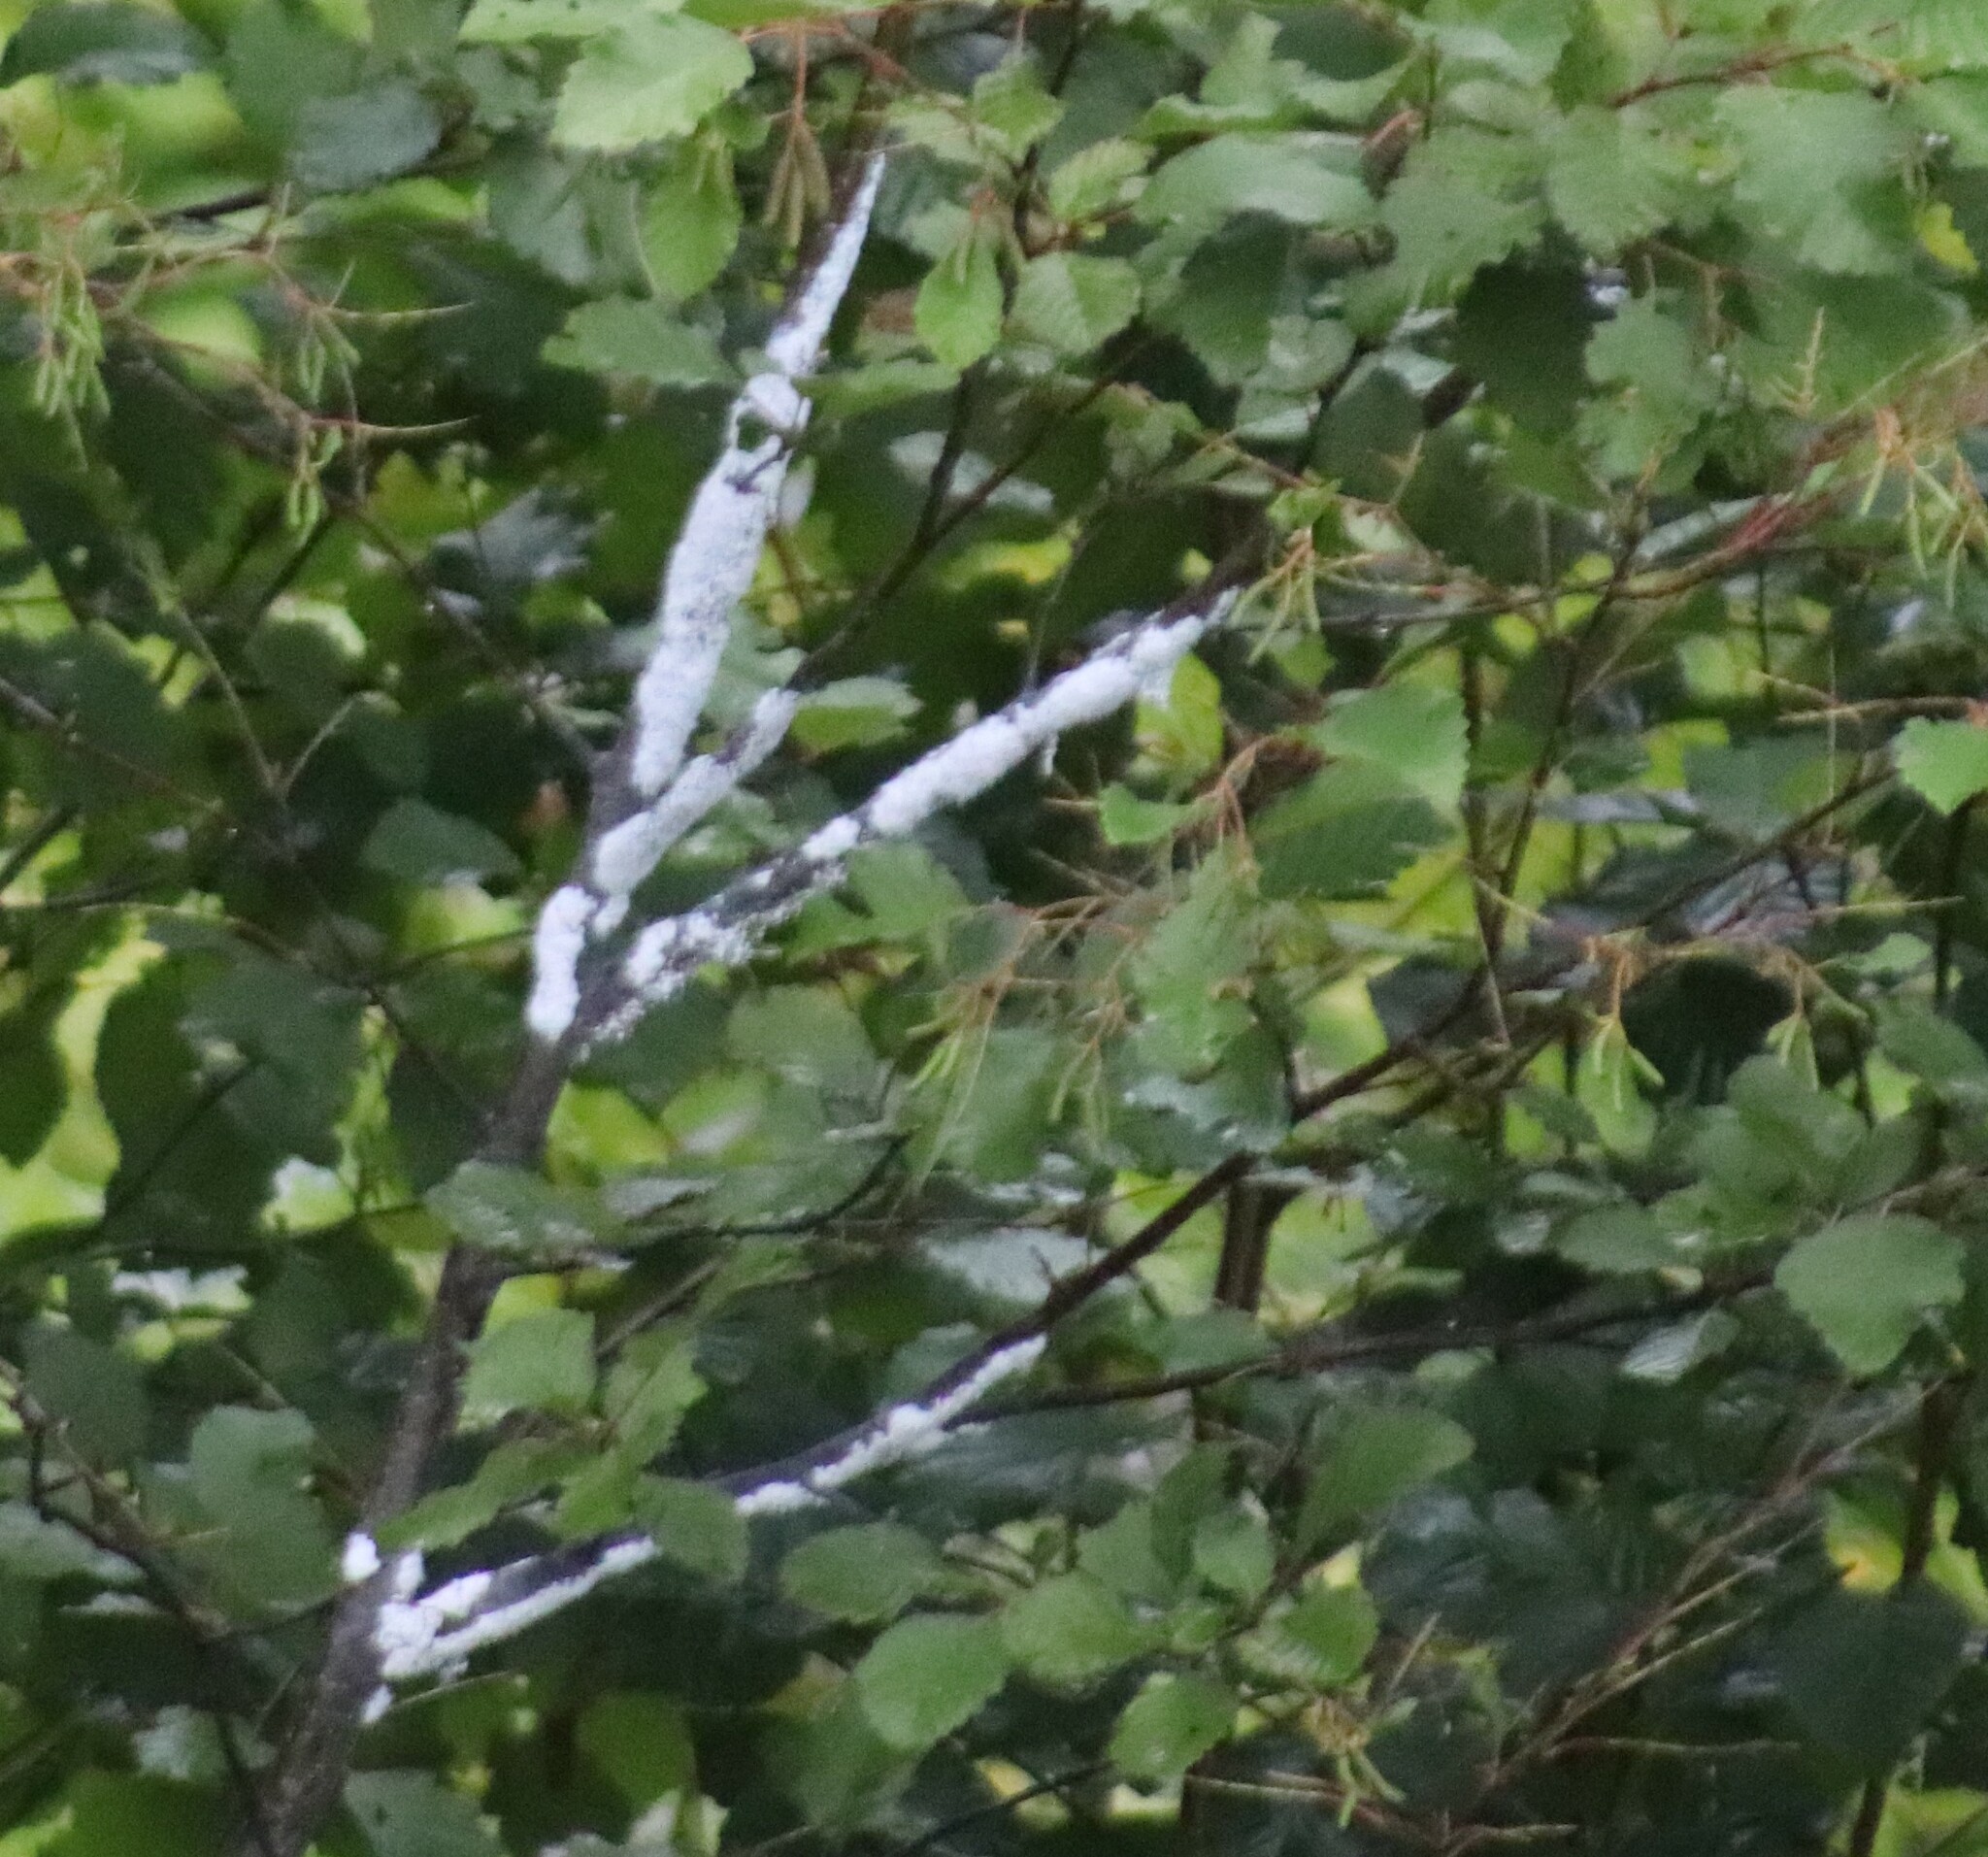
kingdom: Animalia
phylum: Arthropoda
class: Insecta
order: Hemiptera
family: Aphididae
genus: Prociphilus
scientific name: Prociphilus tessellatus
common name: Woolly alder aphid
